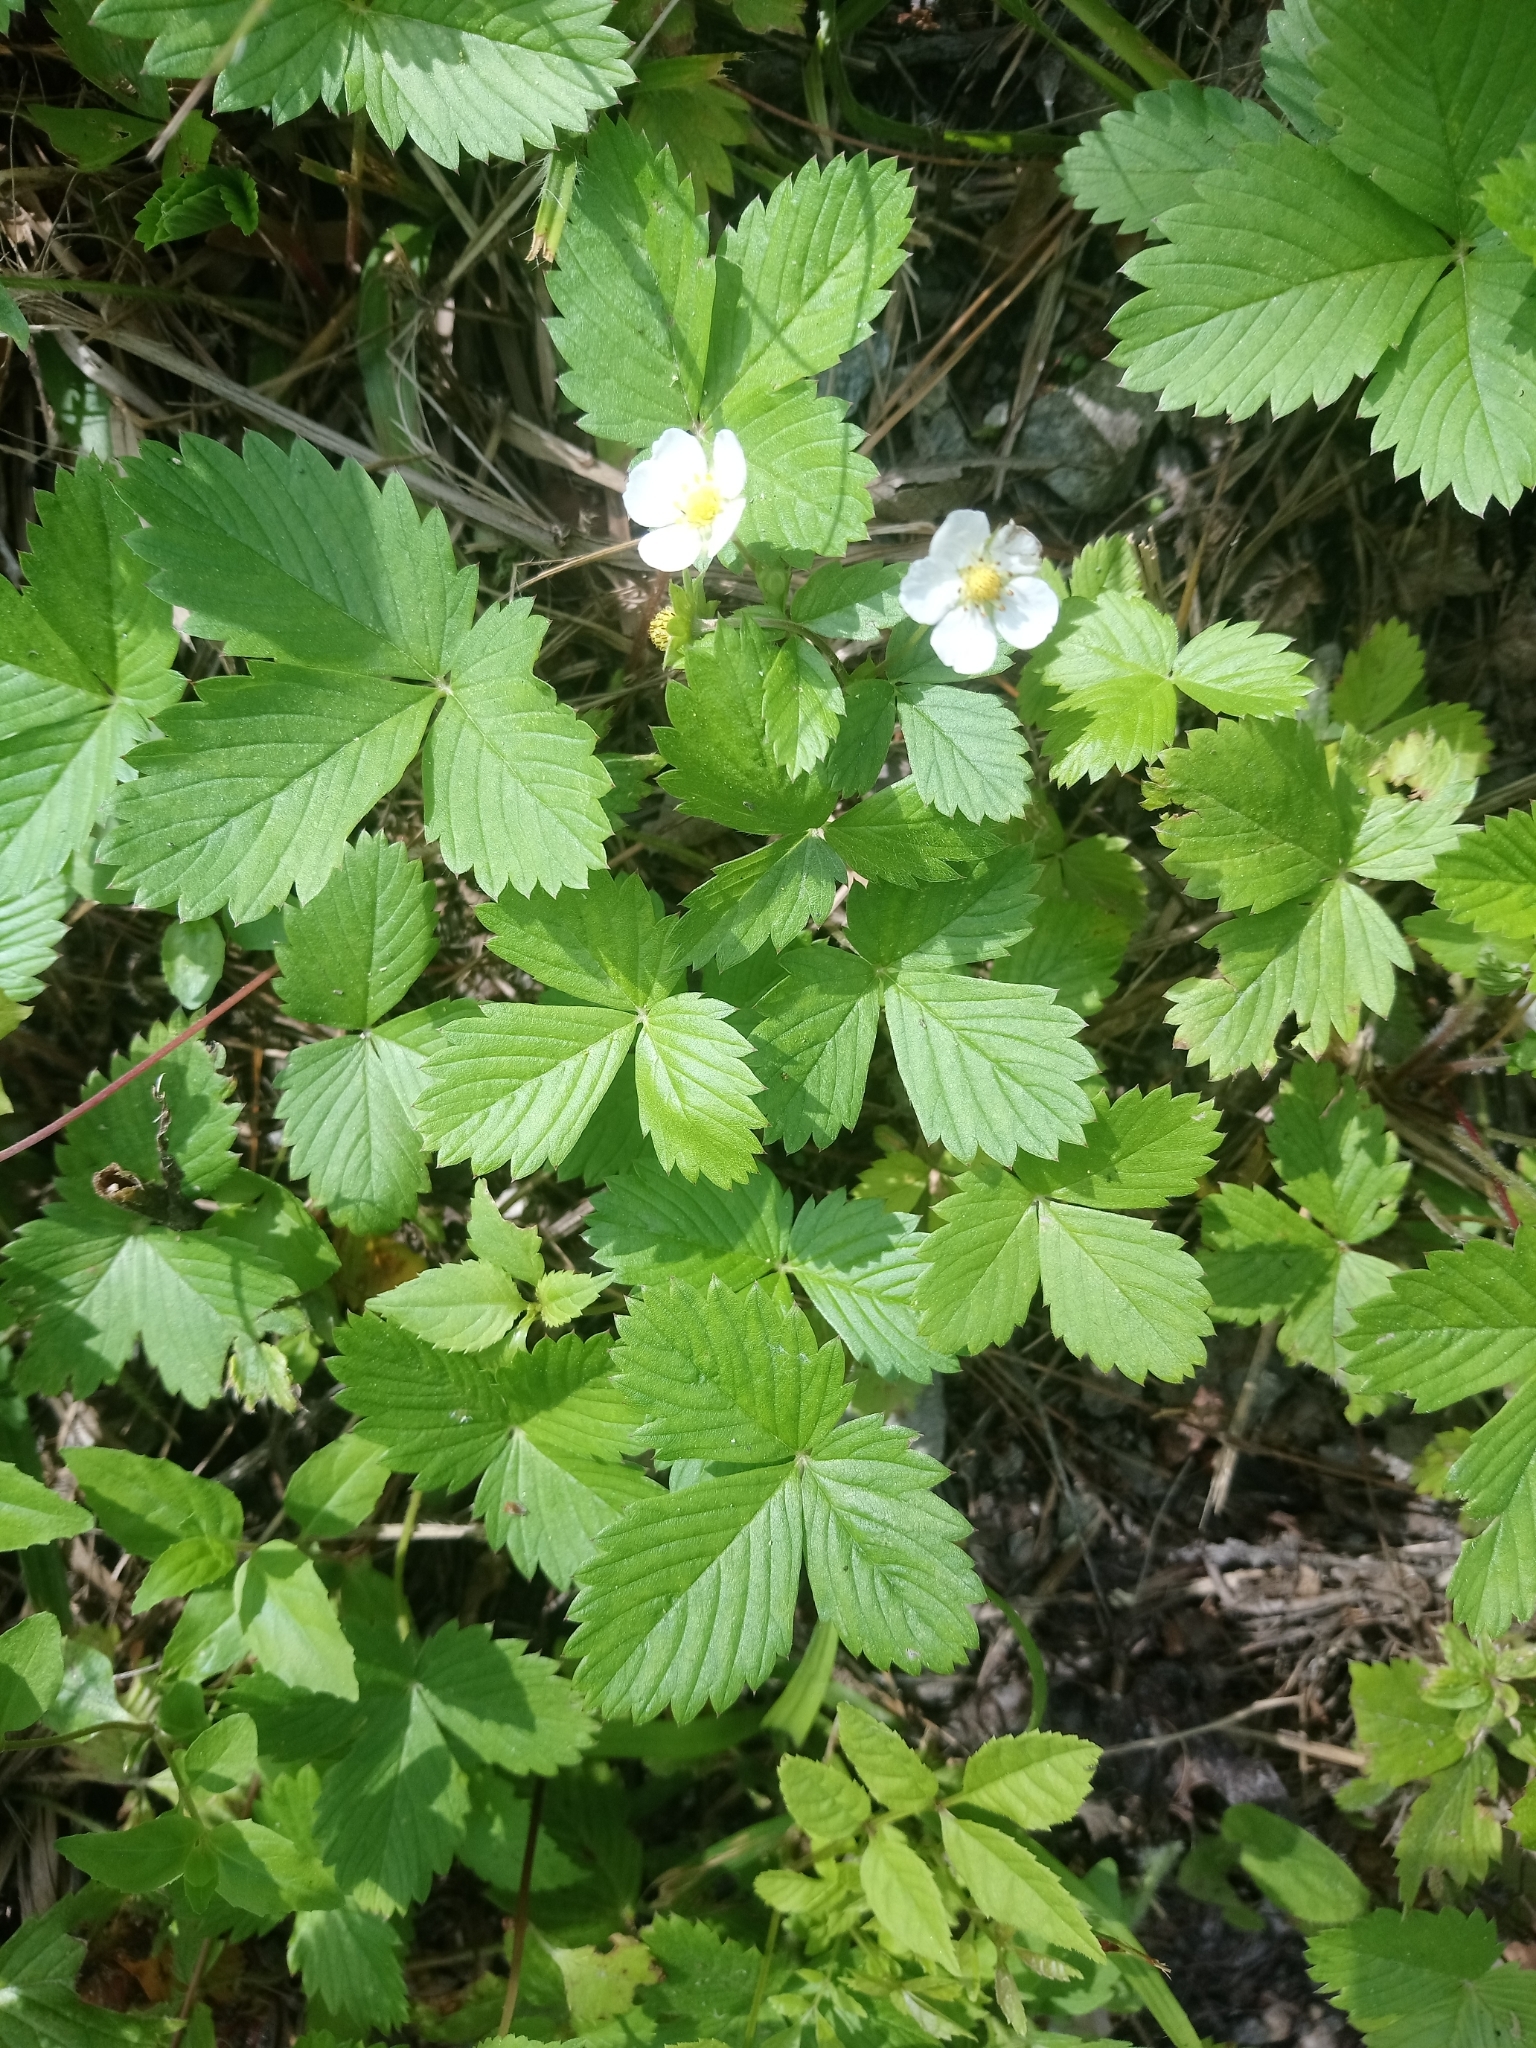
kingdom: Plantae
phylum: Tracheophyta
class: Magnoliopsida
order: Rosales
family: Rosaceae
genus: Fragaria
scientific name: Fragaria vesca
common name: Wild strawberry
